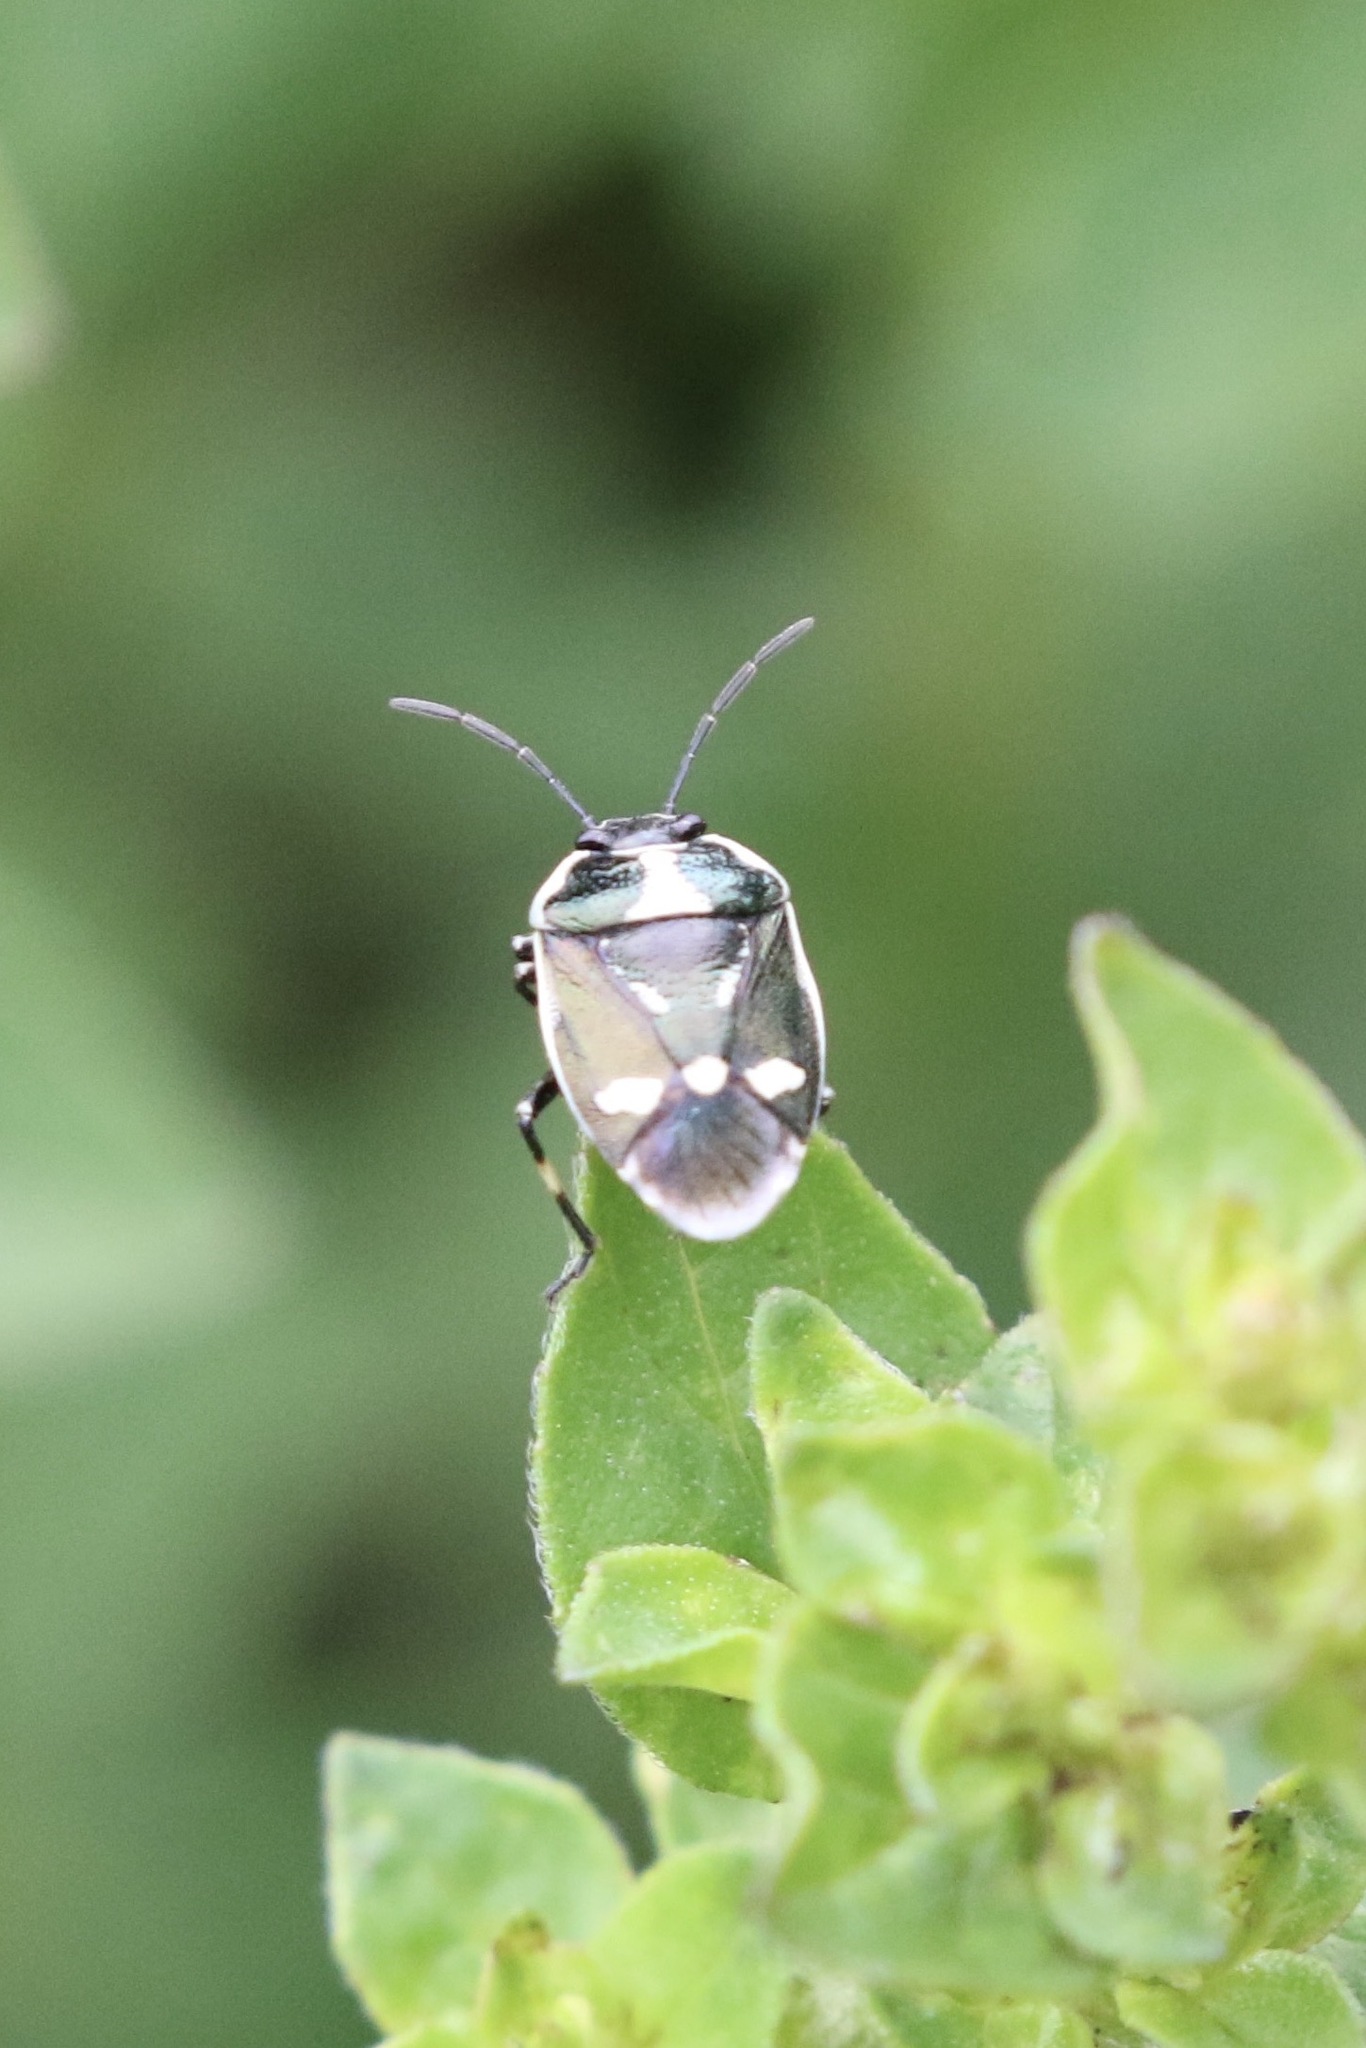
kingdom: Animalia
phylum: Arthropoda
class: Insecta
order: Hemiptera
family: Pentatomidae
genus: Eurydema
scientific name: Eurydema oleracea
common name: Cabbage bug
